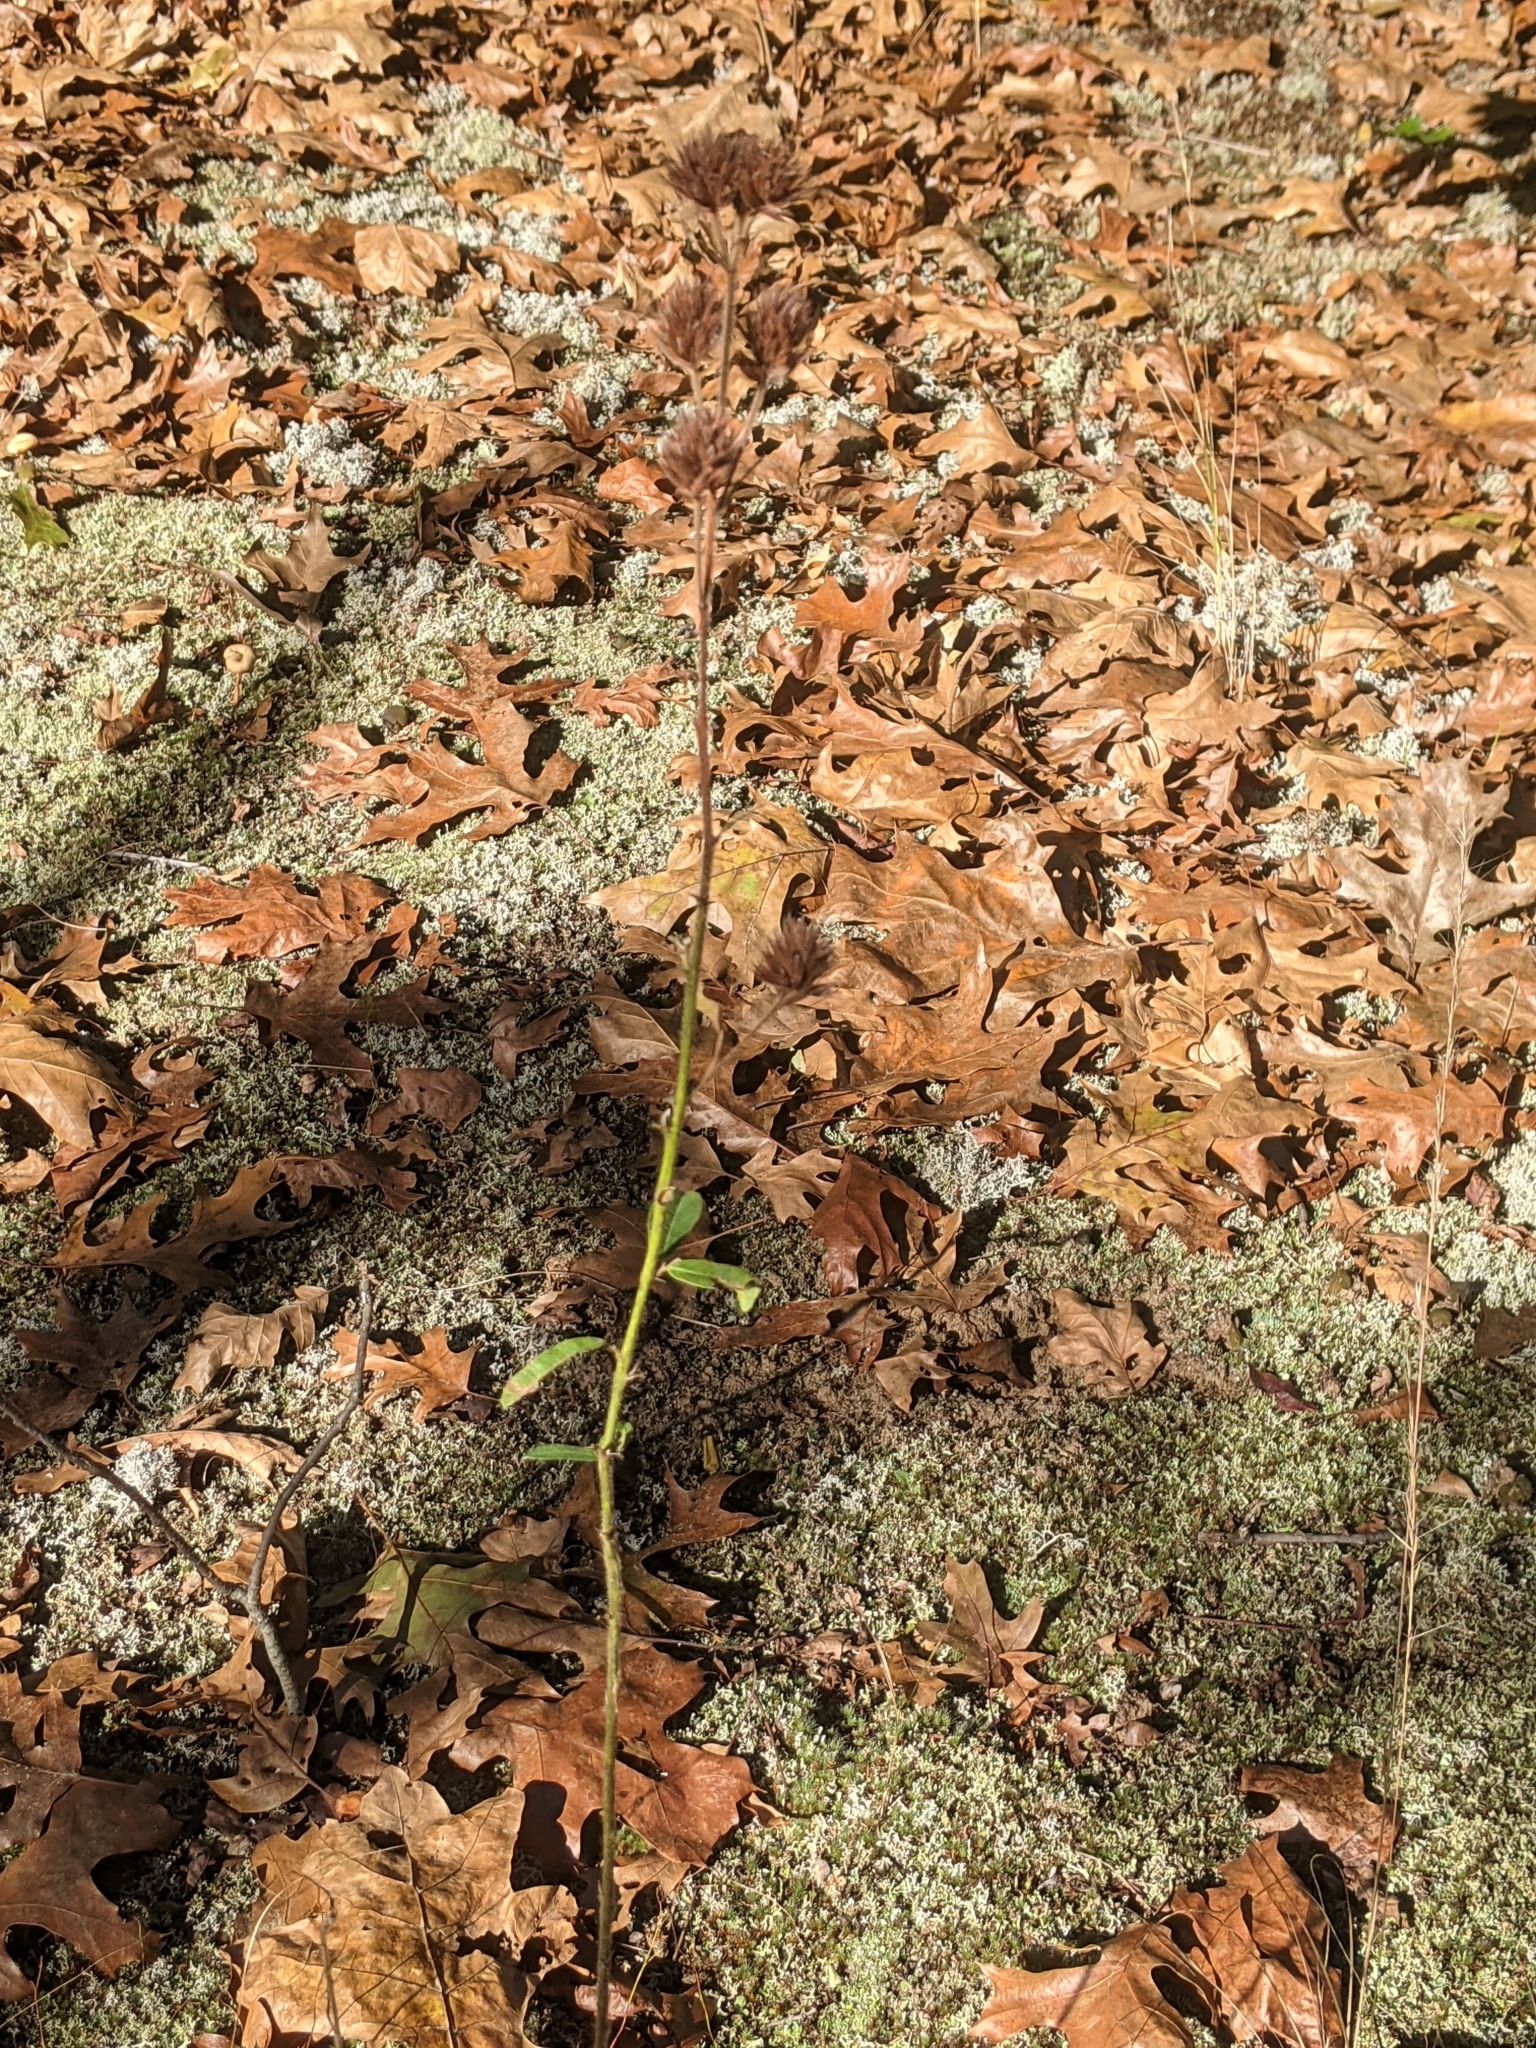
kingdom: Plantae
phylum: Tracheophyta
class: Magnoliopsida
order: Fabales
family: Fabaceae
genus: Lespedeza
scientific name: Lespedeza capitata
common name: Dusty clover
